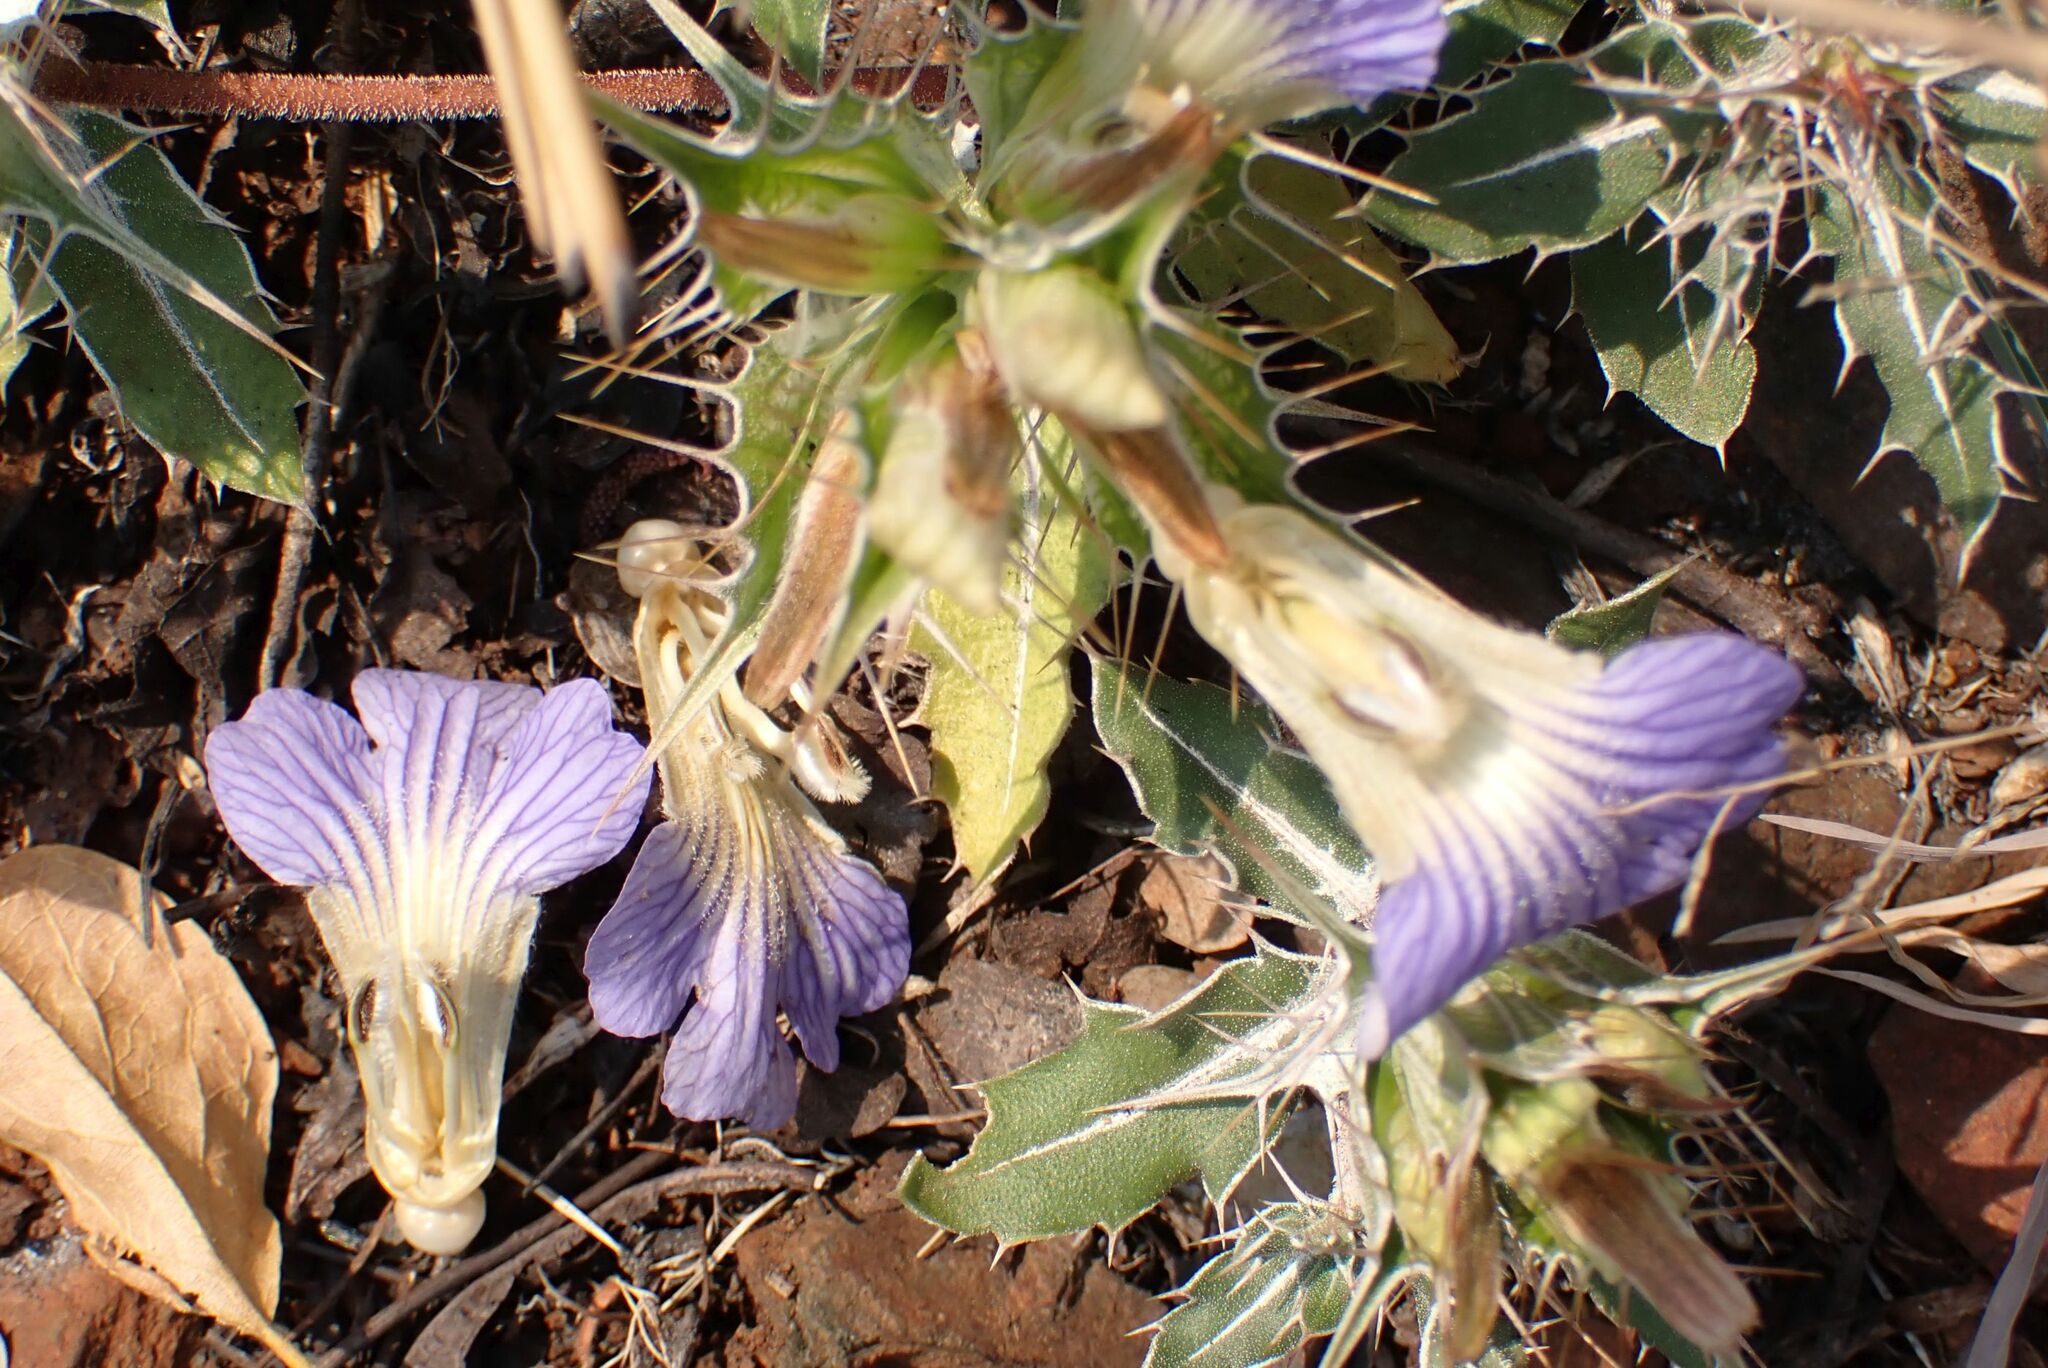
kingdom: Plantae
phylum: Tracheophyta
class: Magnoliopsida
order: Lamiales
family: Acanthaceae
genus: Blepharis
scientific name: Blepharis subvolubilis
